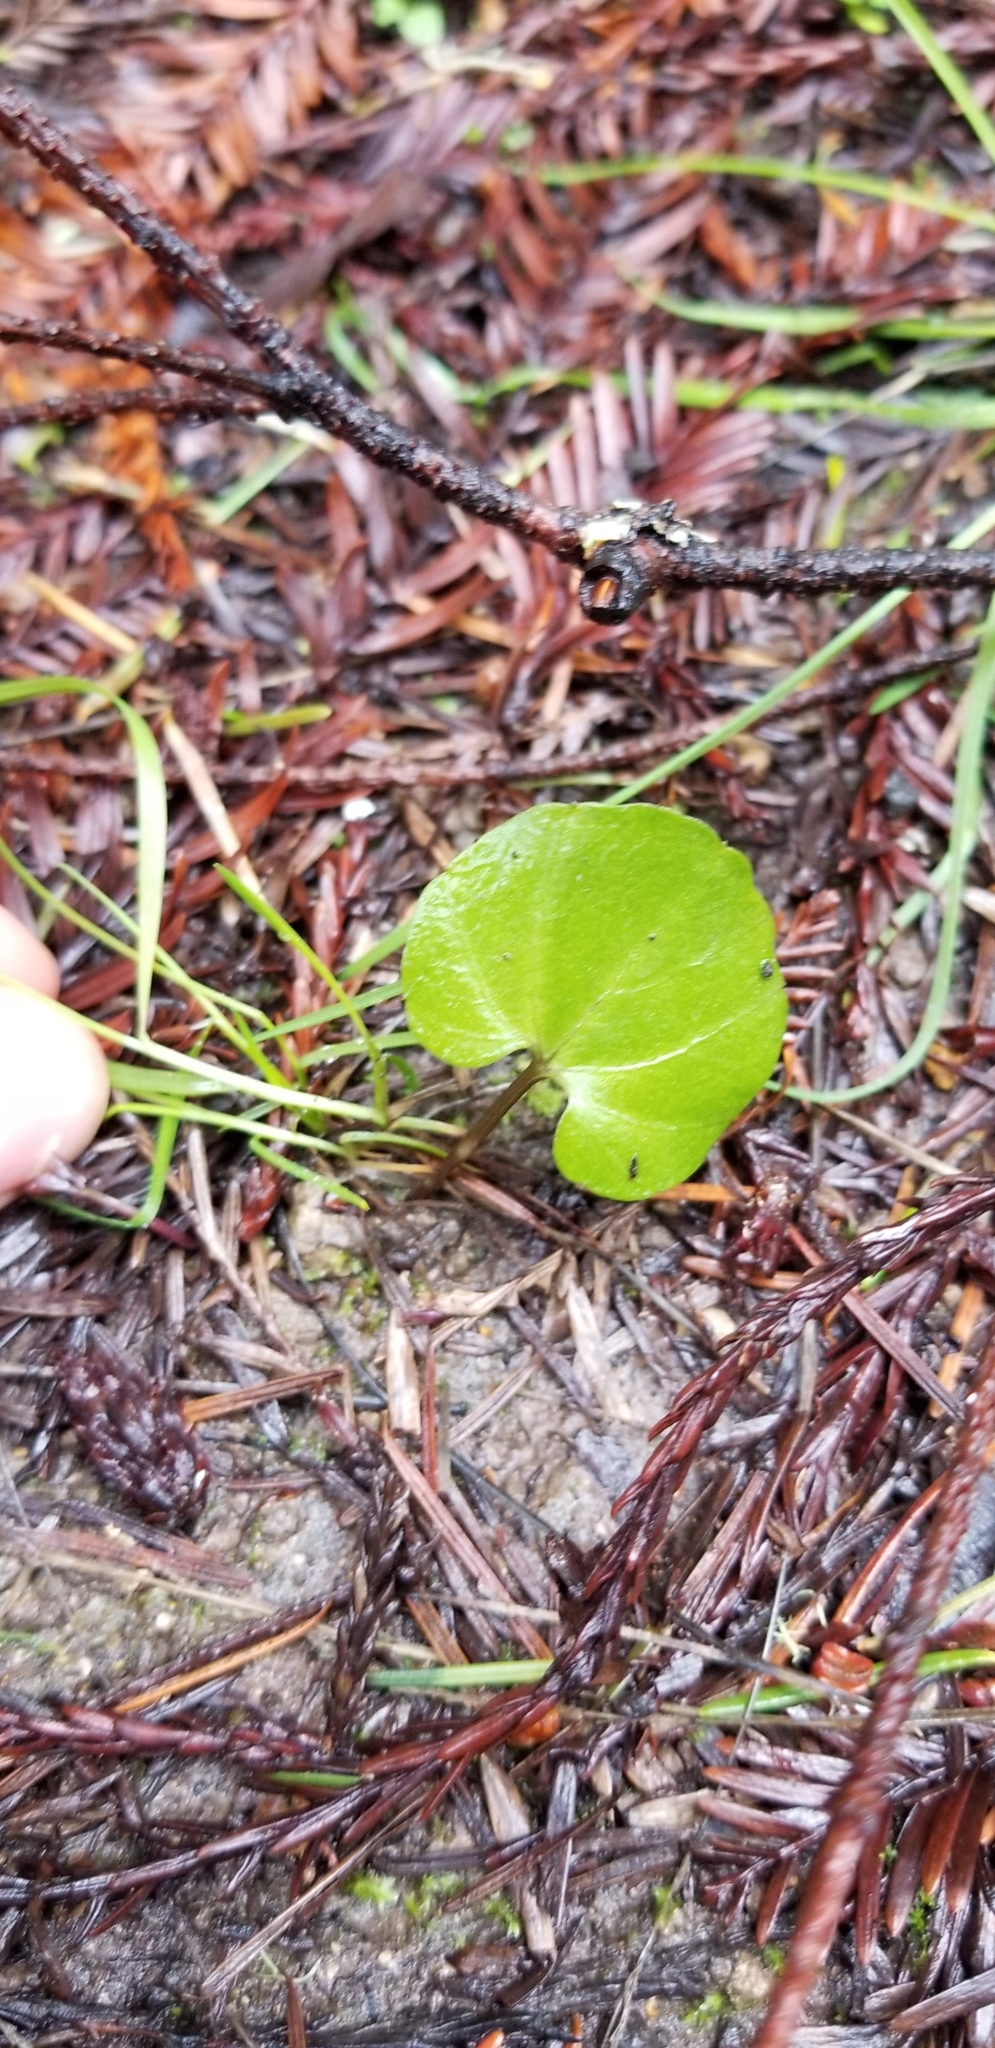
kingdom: Plantae
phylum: Tracheophyta
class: Magnoliopsida
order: Brassicales
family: Brassicaceae
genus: Cardamine
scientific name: Cardamine californica
